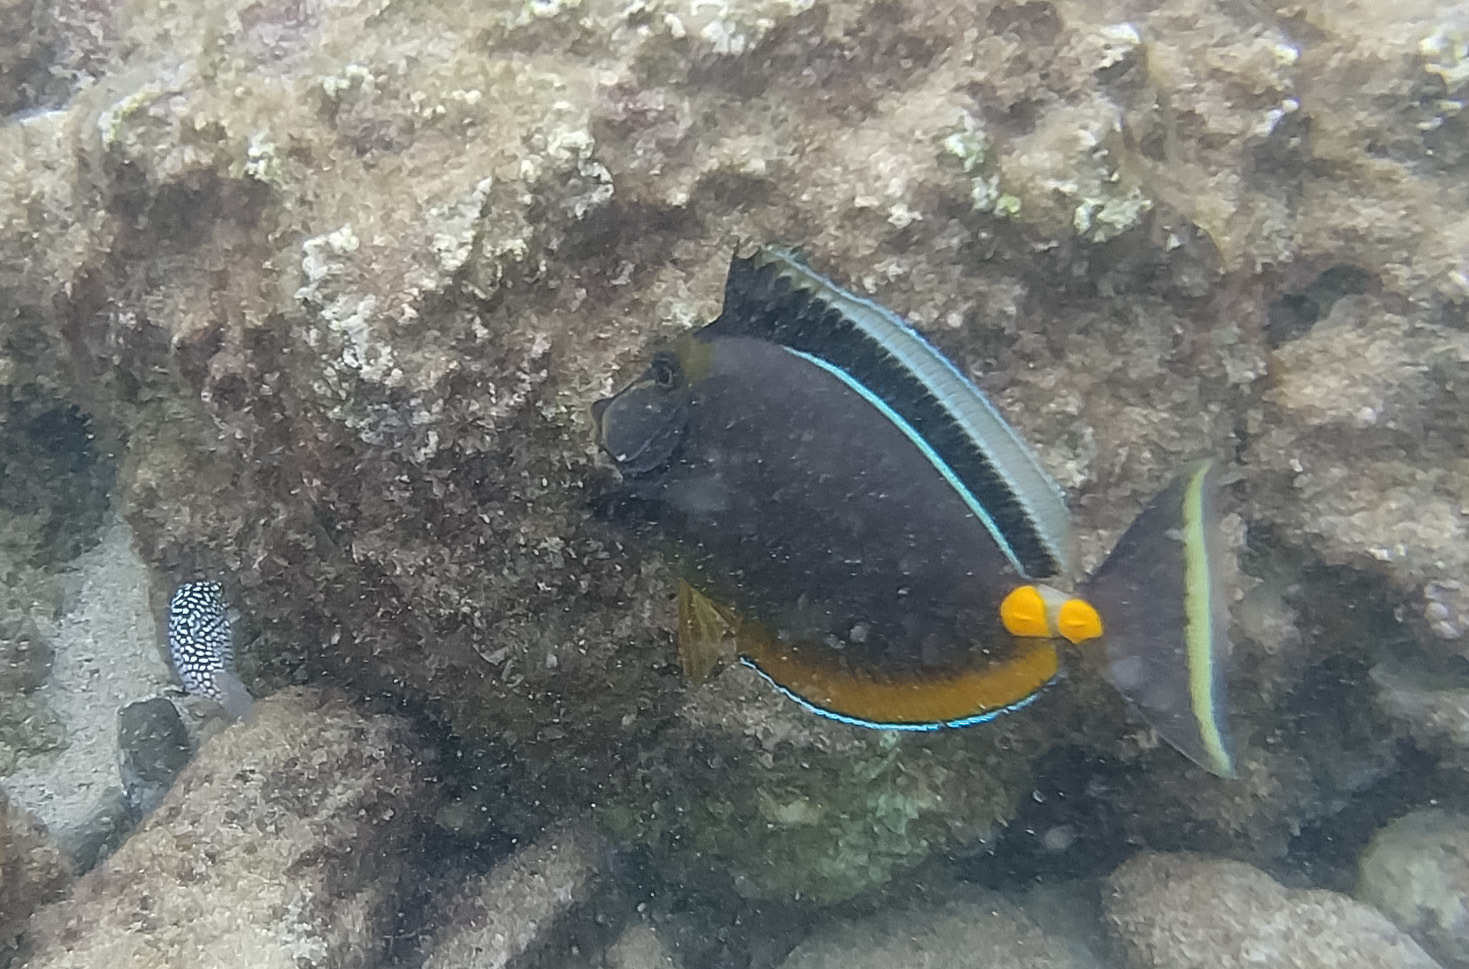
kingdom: Animalia
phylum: Chordata
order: Perciformes
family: Acanthuridae
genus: Naso
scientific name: Naso lituratus
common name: Orangespine unicornfish
